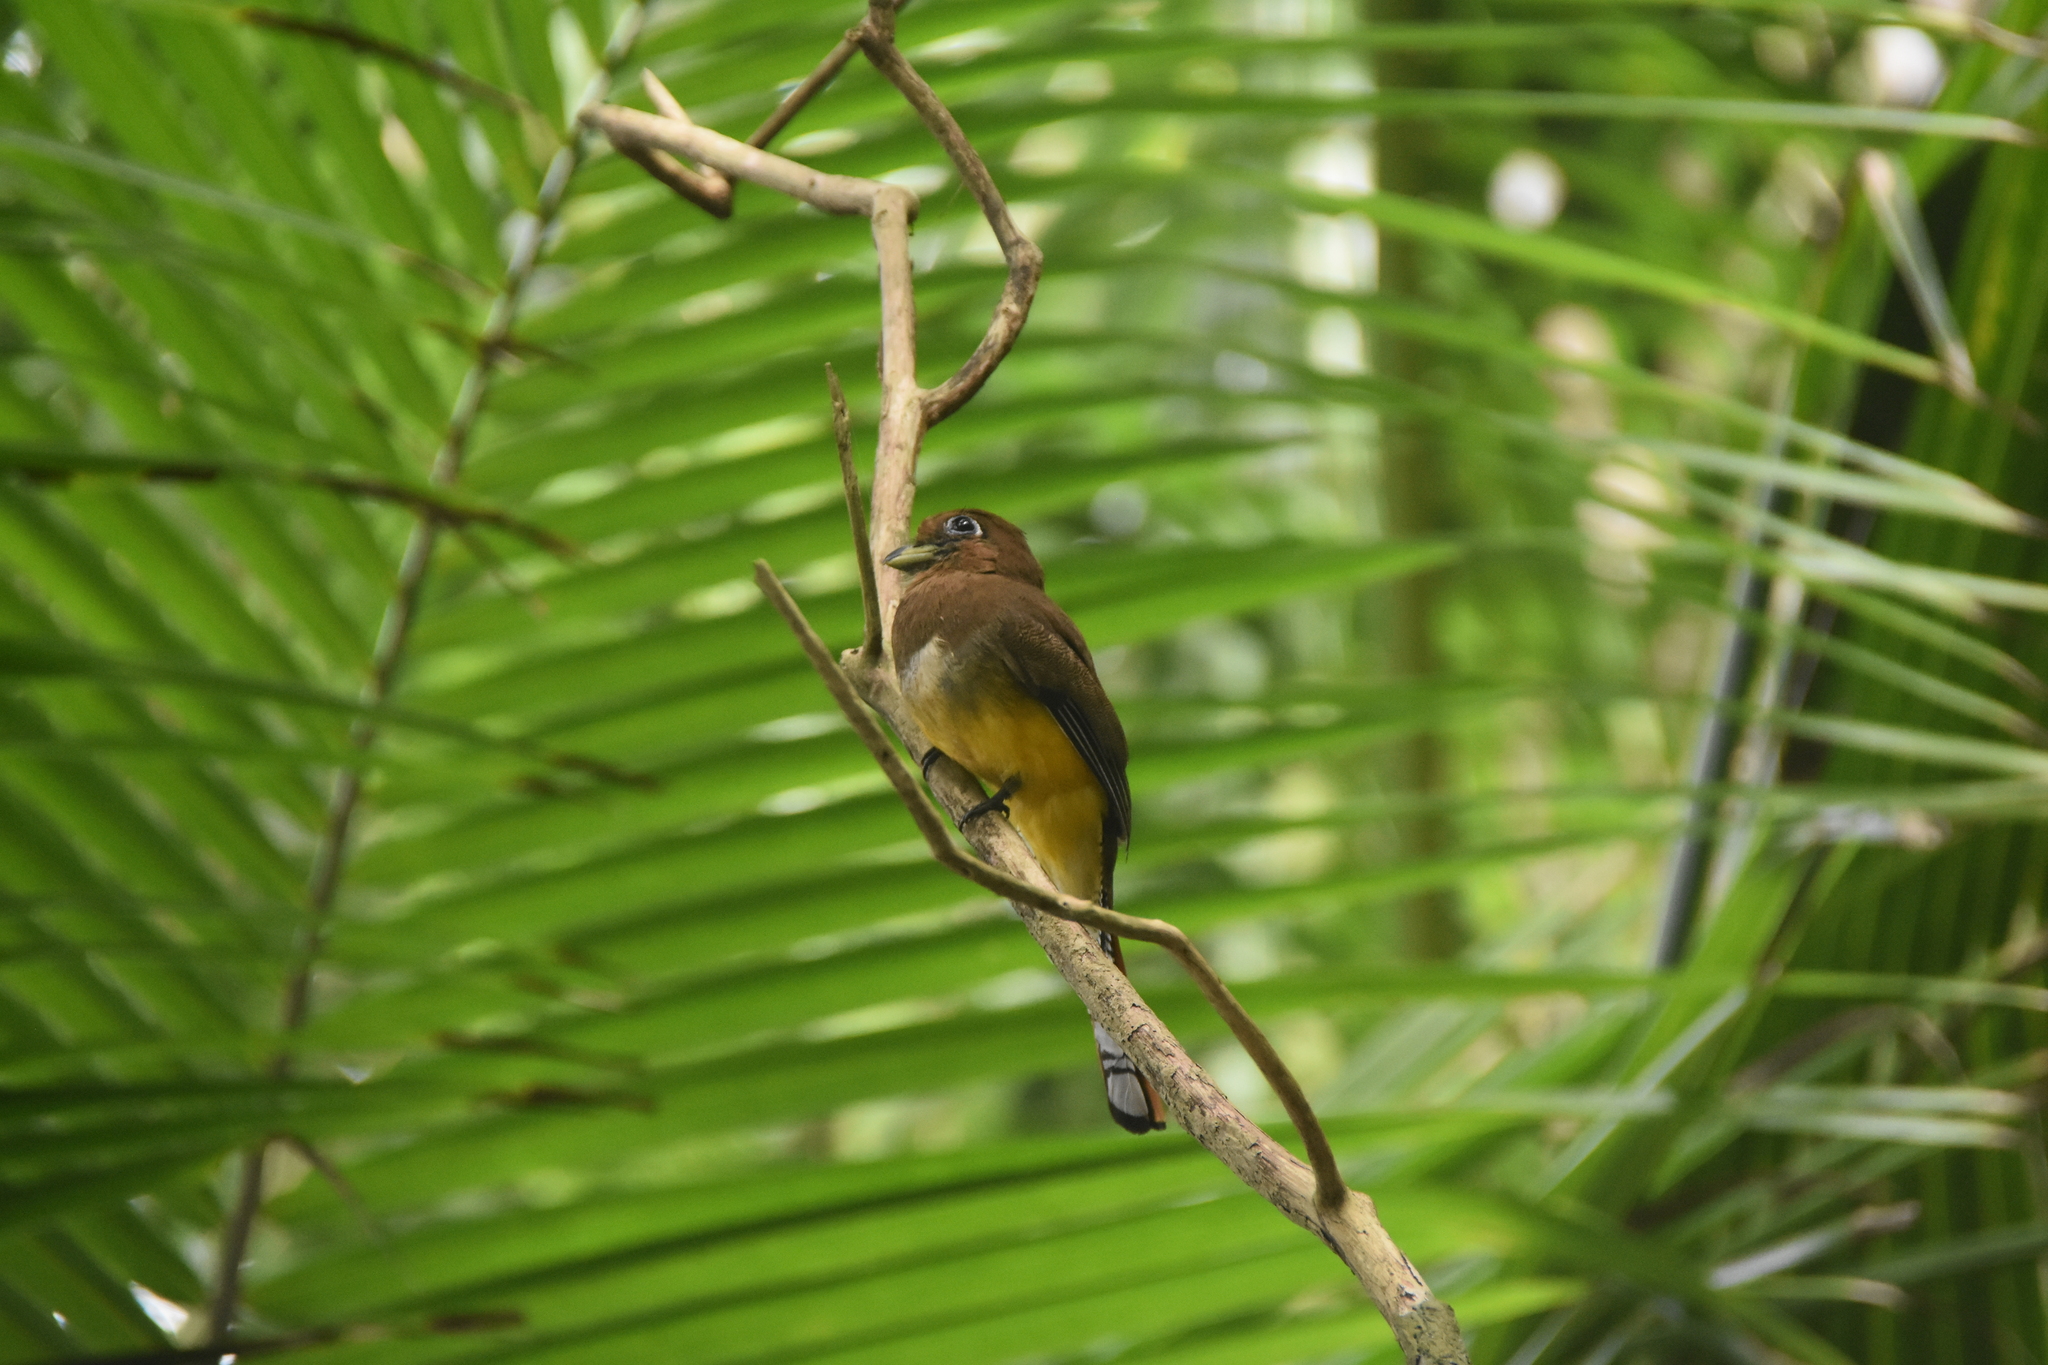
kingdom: Animalia
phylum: Chordata
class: Aves
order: Trogoniformes
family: Trogonidae
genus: Trogon
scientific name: Trogon rufus
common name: Black-throated trogon
